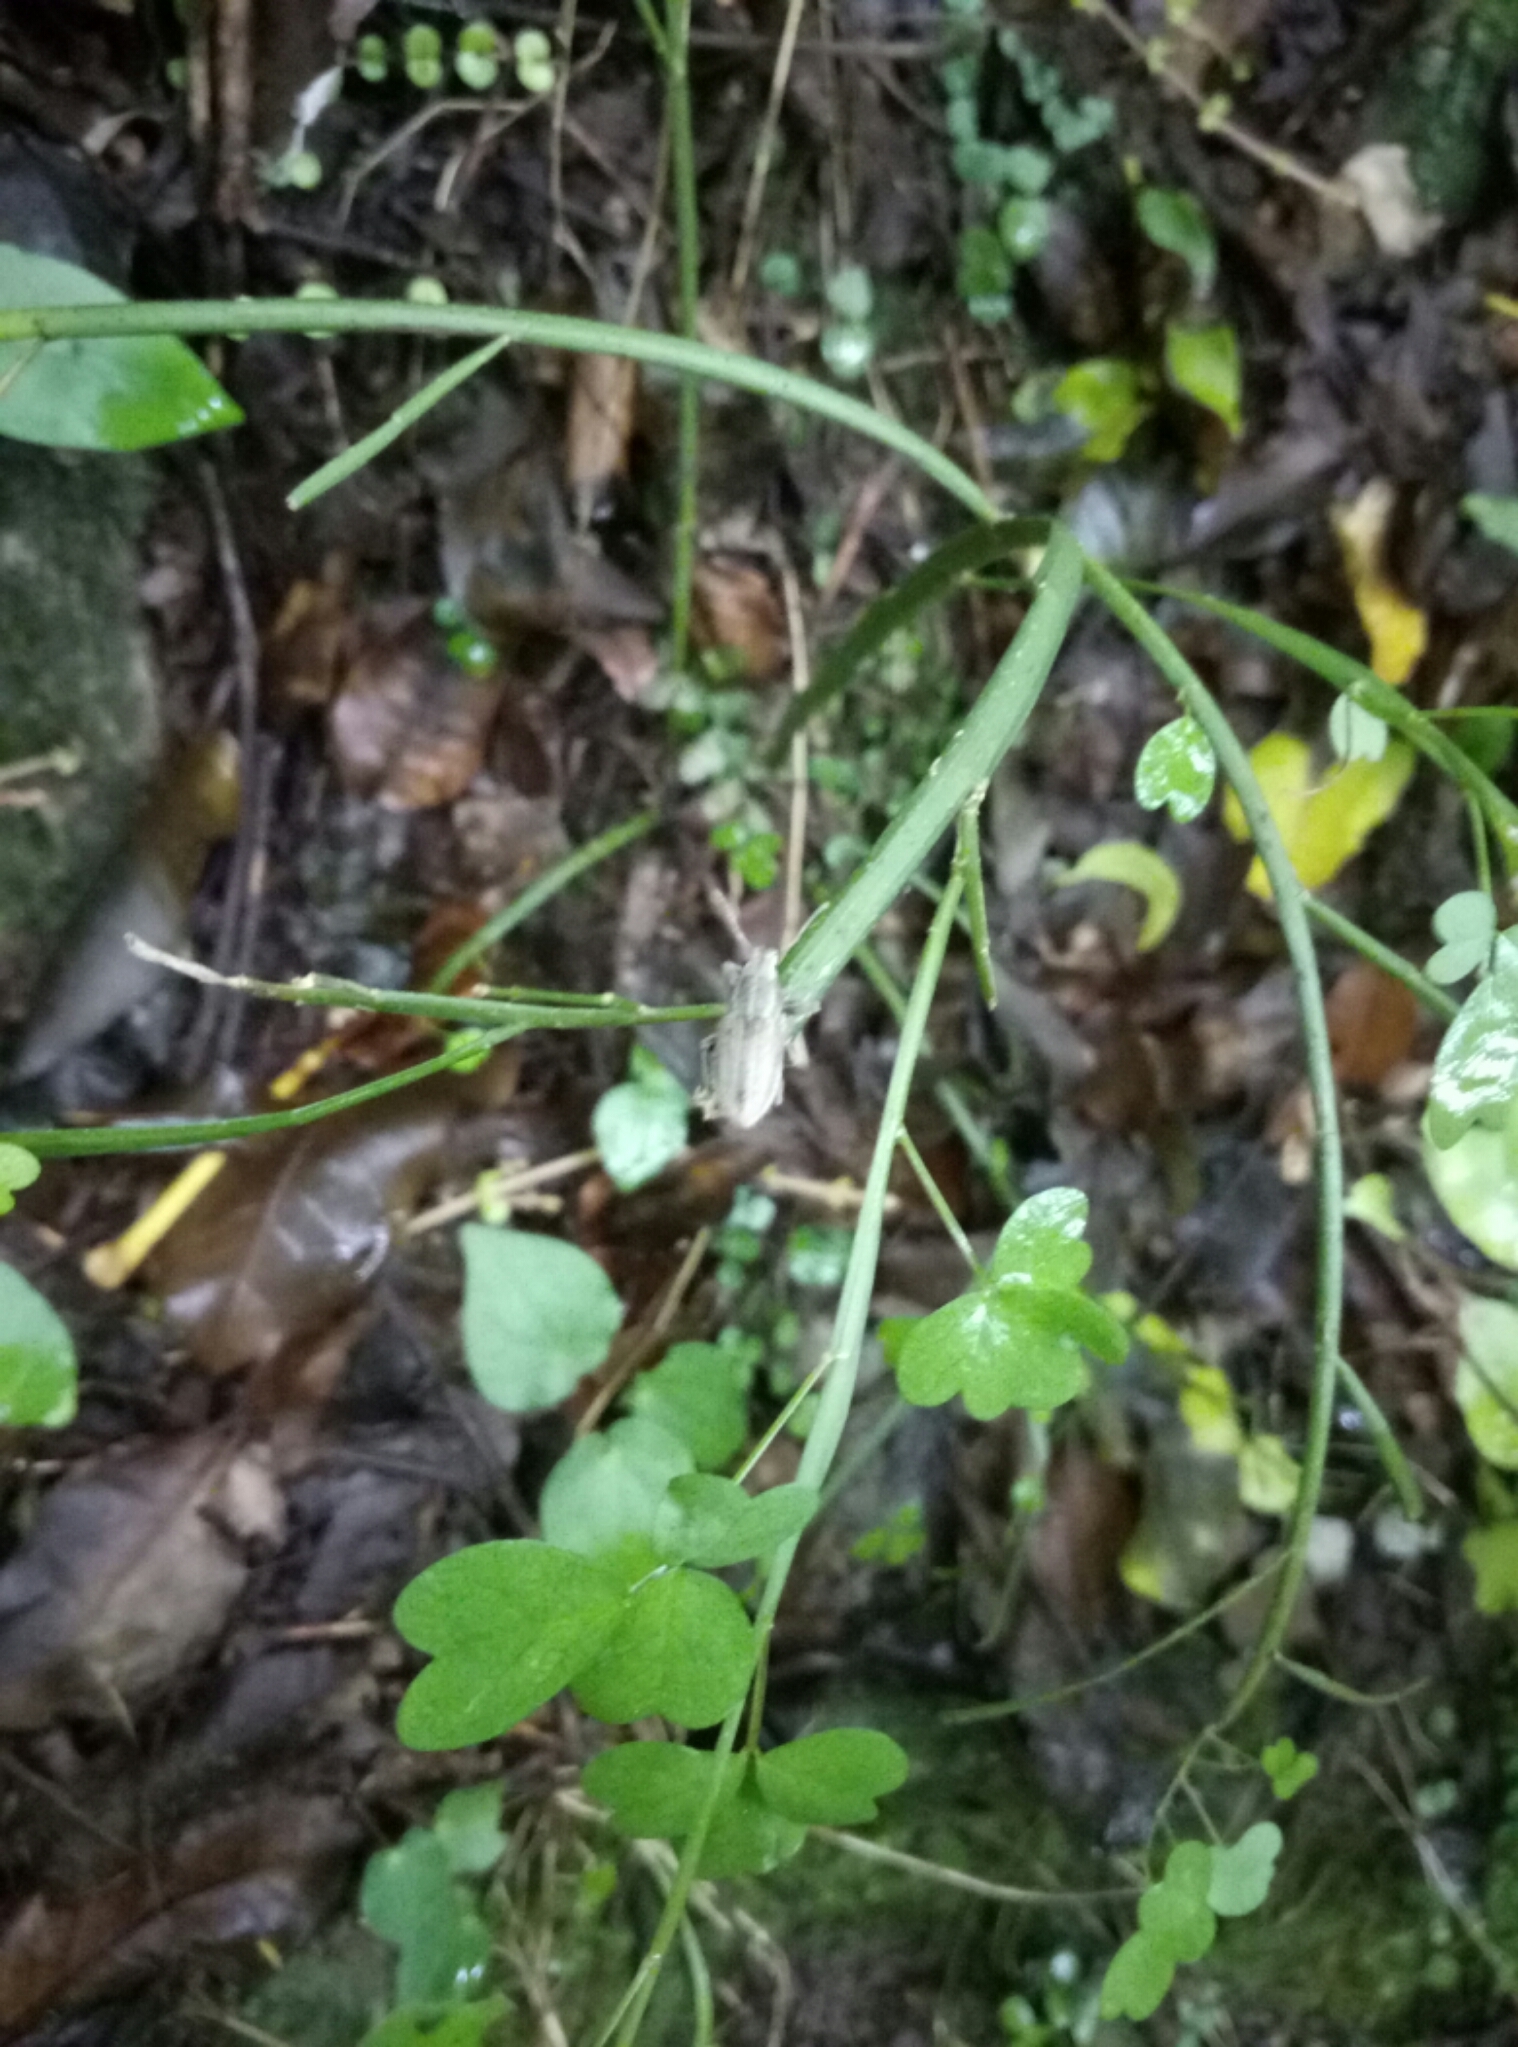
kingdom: Animalia
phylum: Arthropoda
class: Insecta
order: Coleoptera
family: Curculionidae
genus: Naupactus
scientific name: Naupactus leucoloma
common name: Whitefringed beetle
